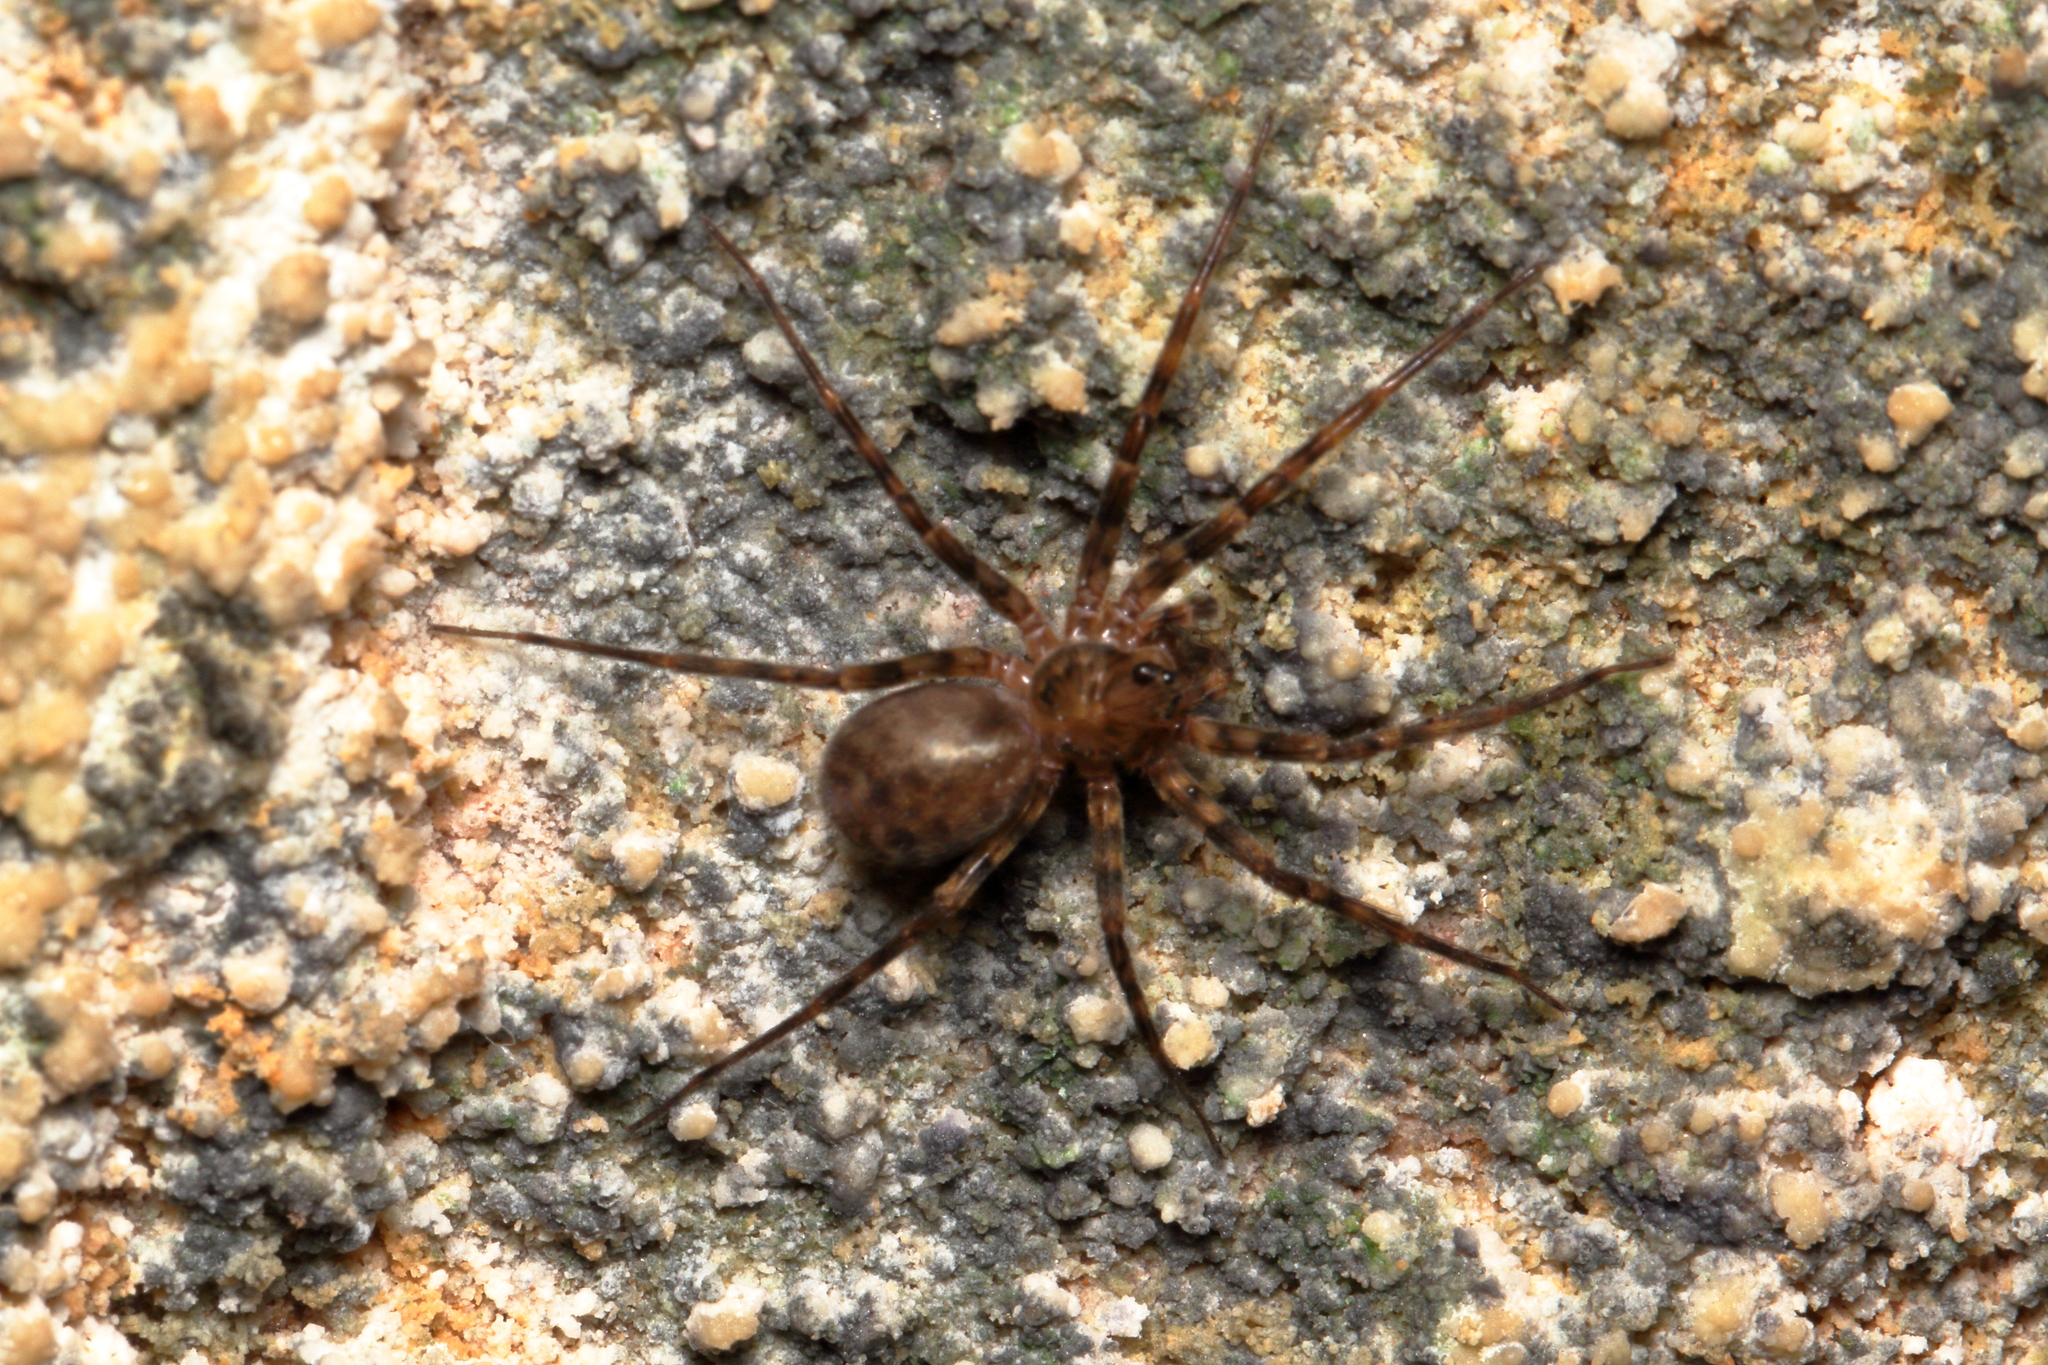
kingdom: Animalia
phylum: Arthropoda
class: Arachnida
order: Araneae
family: Stiphidiidae
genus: Stiphidion
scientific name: Stiphidion facetum
